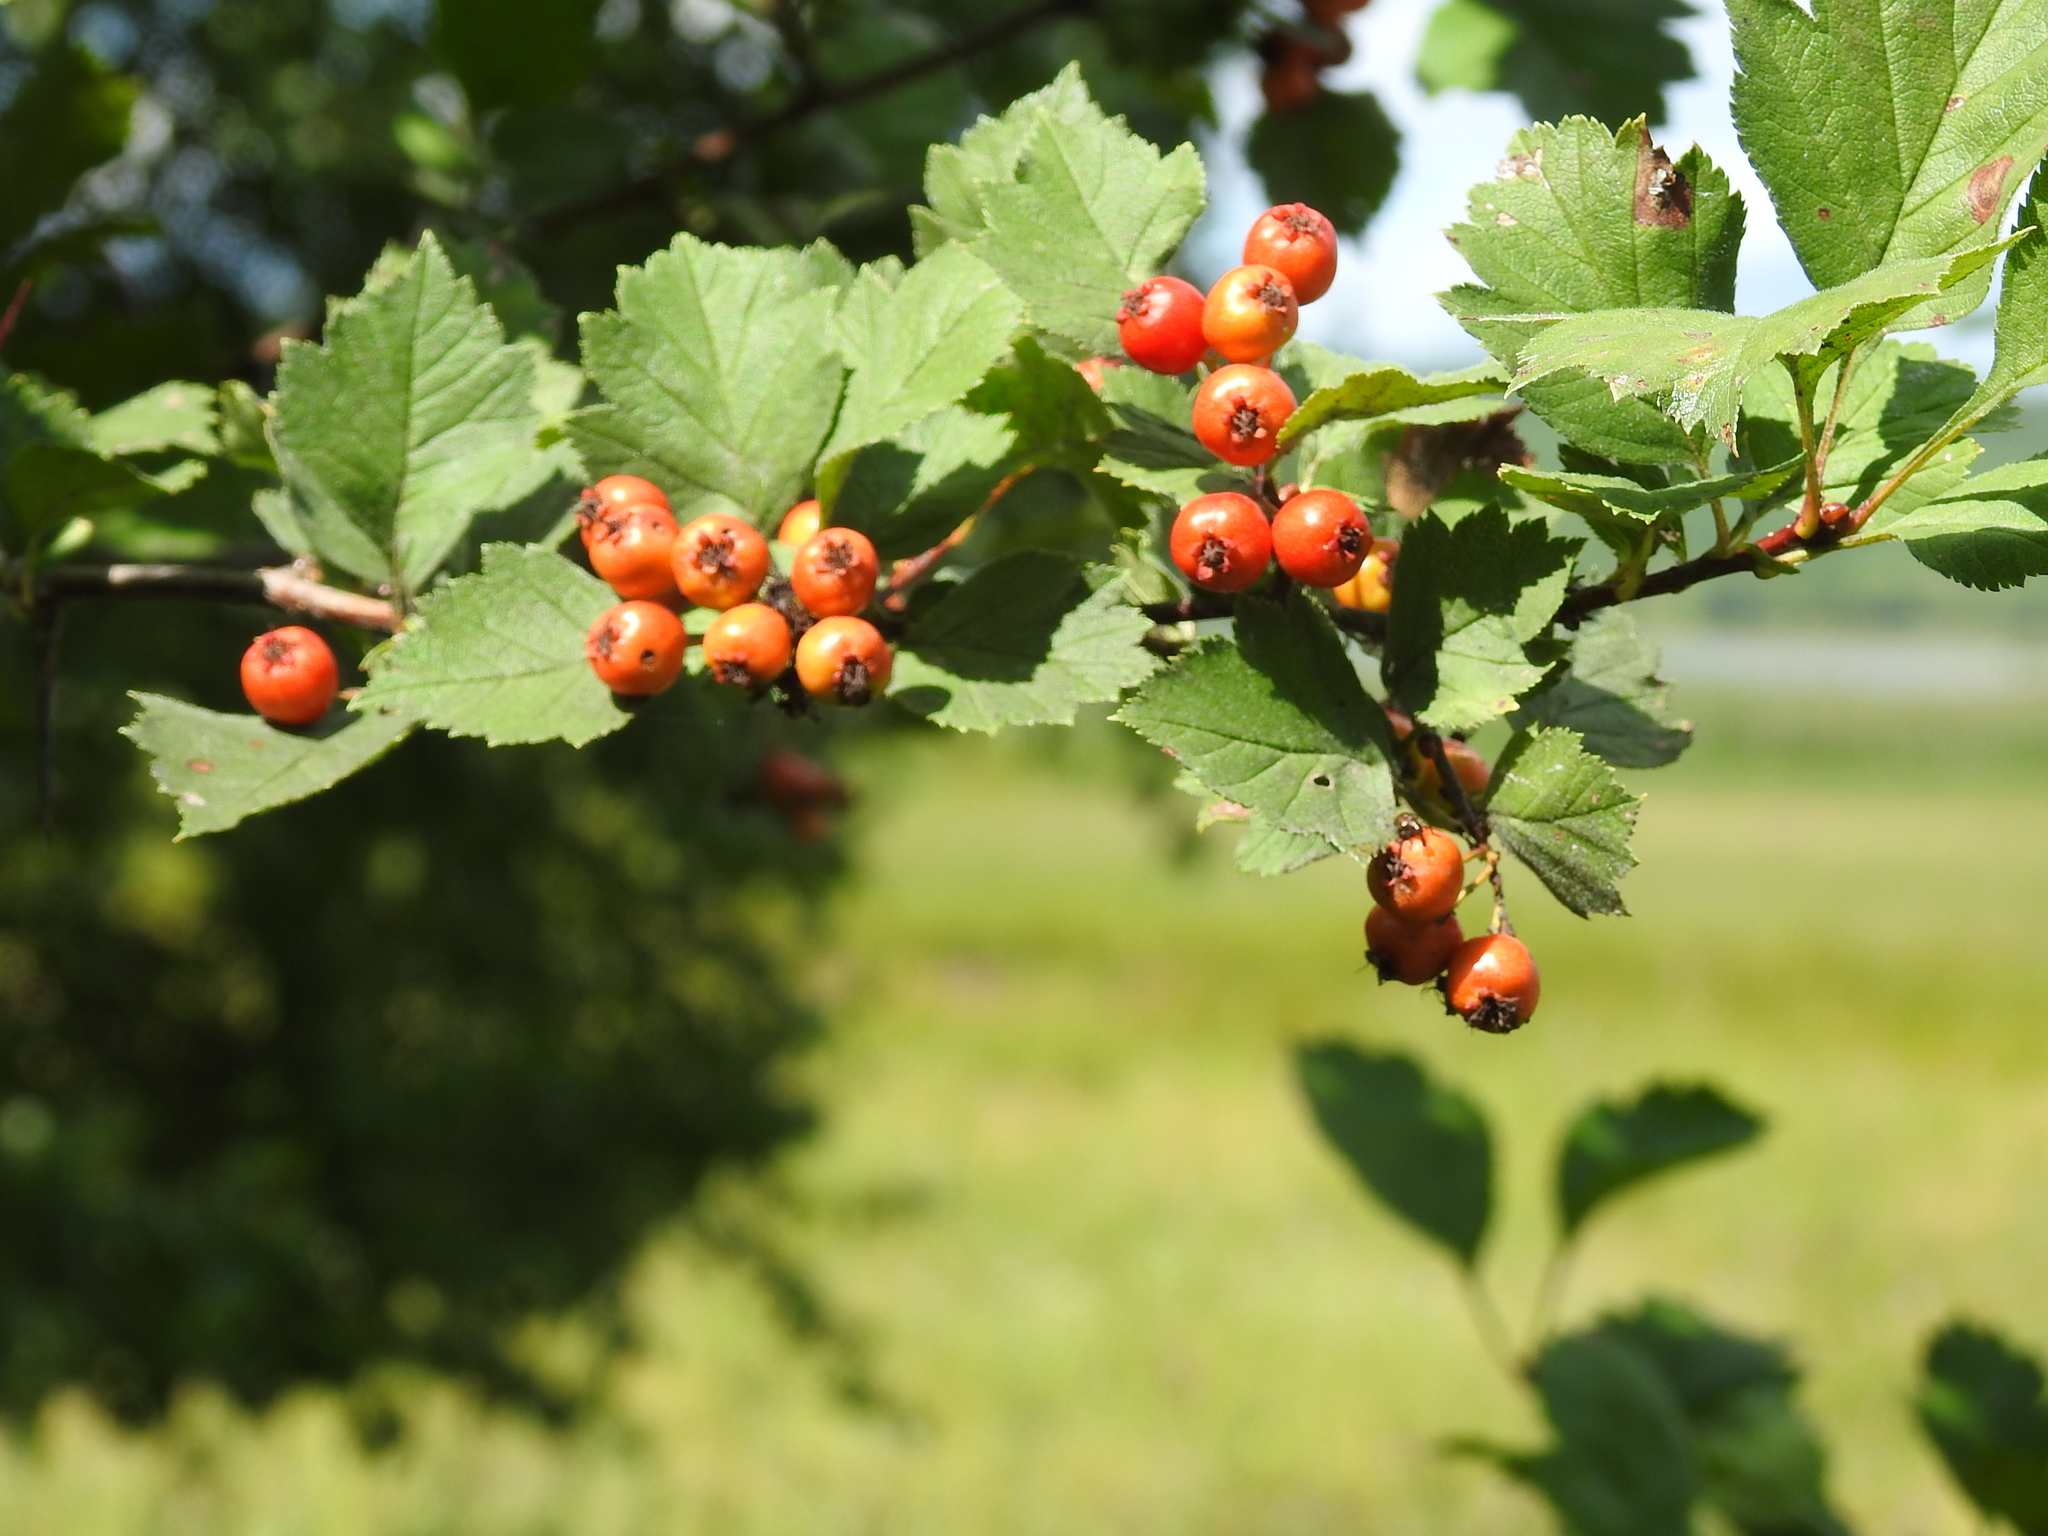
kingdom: Plantae
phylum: Tracheophyta
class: Magnoliopsida
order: Rosales
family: Rosaceae
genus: Crataegus
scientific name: Crataegus sanguinea
